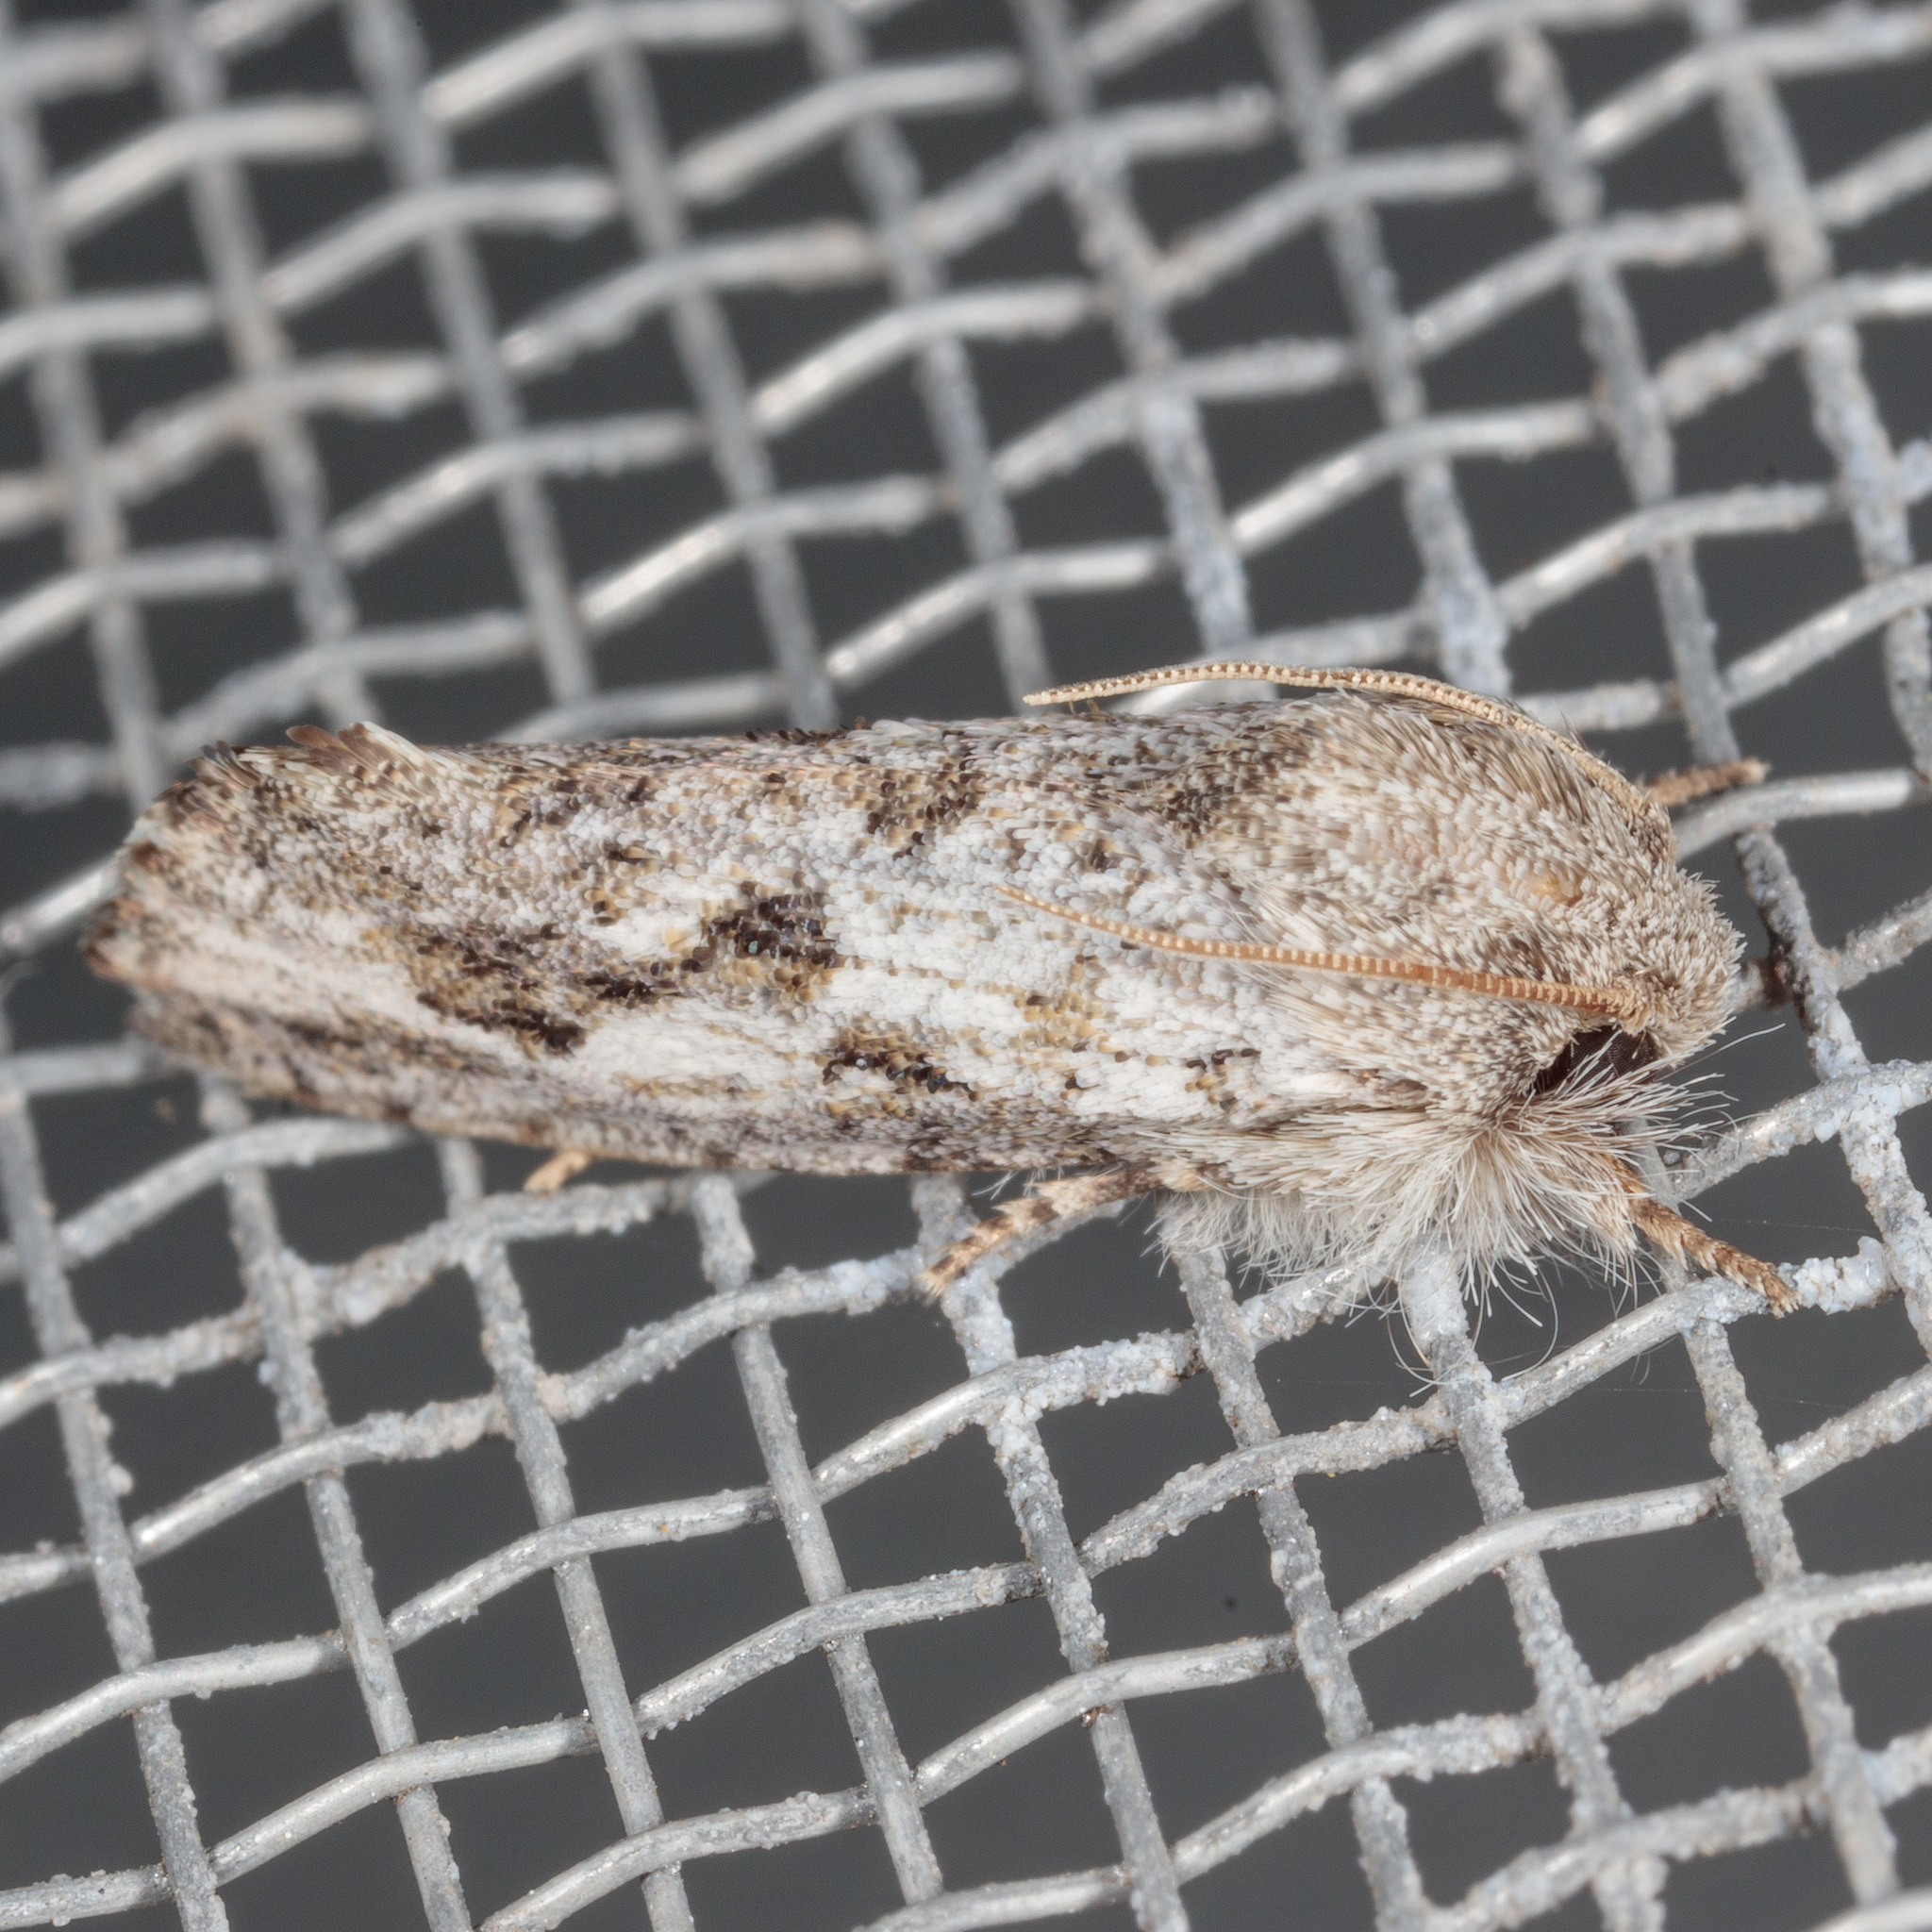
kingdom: Animalia
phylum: Arthropoda
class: Insecta
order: Lepidoptera
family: Tineidae
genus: Acrolophus
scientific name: Acrolophus griseus
